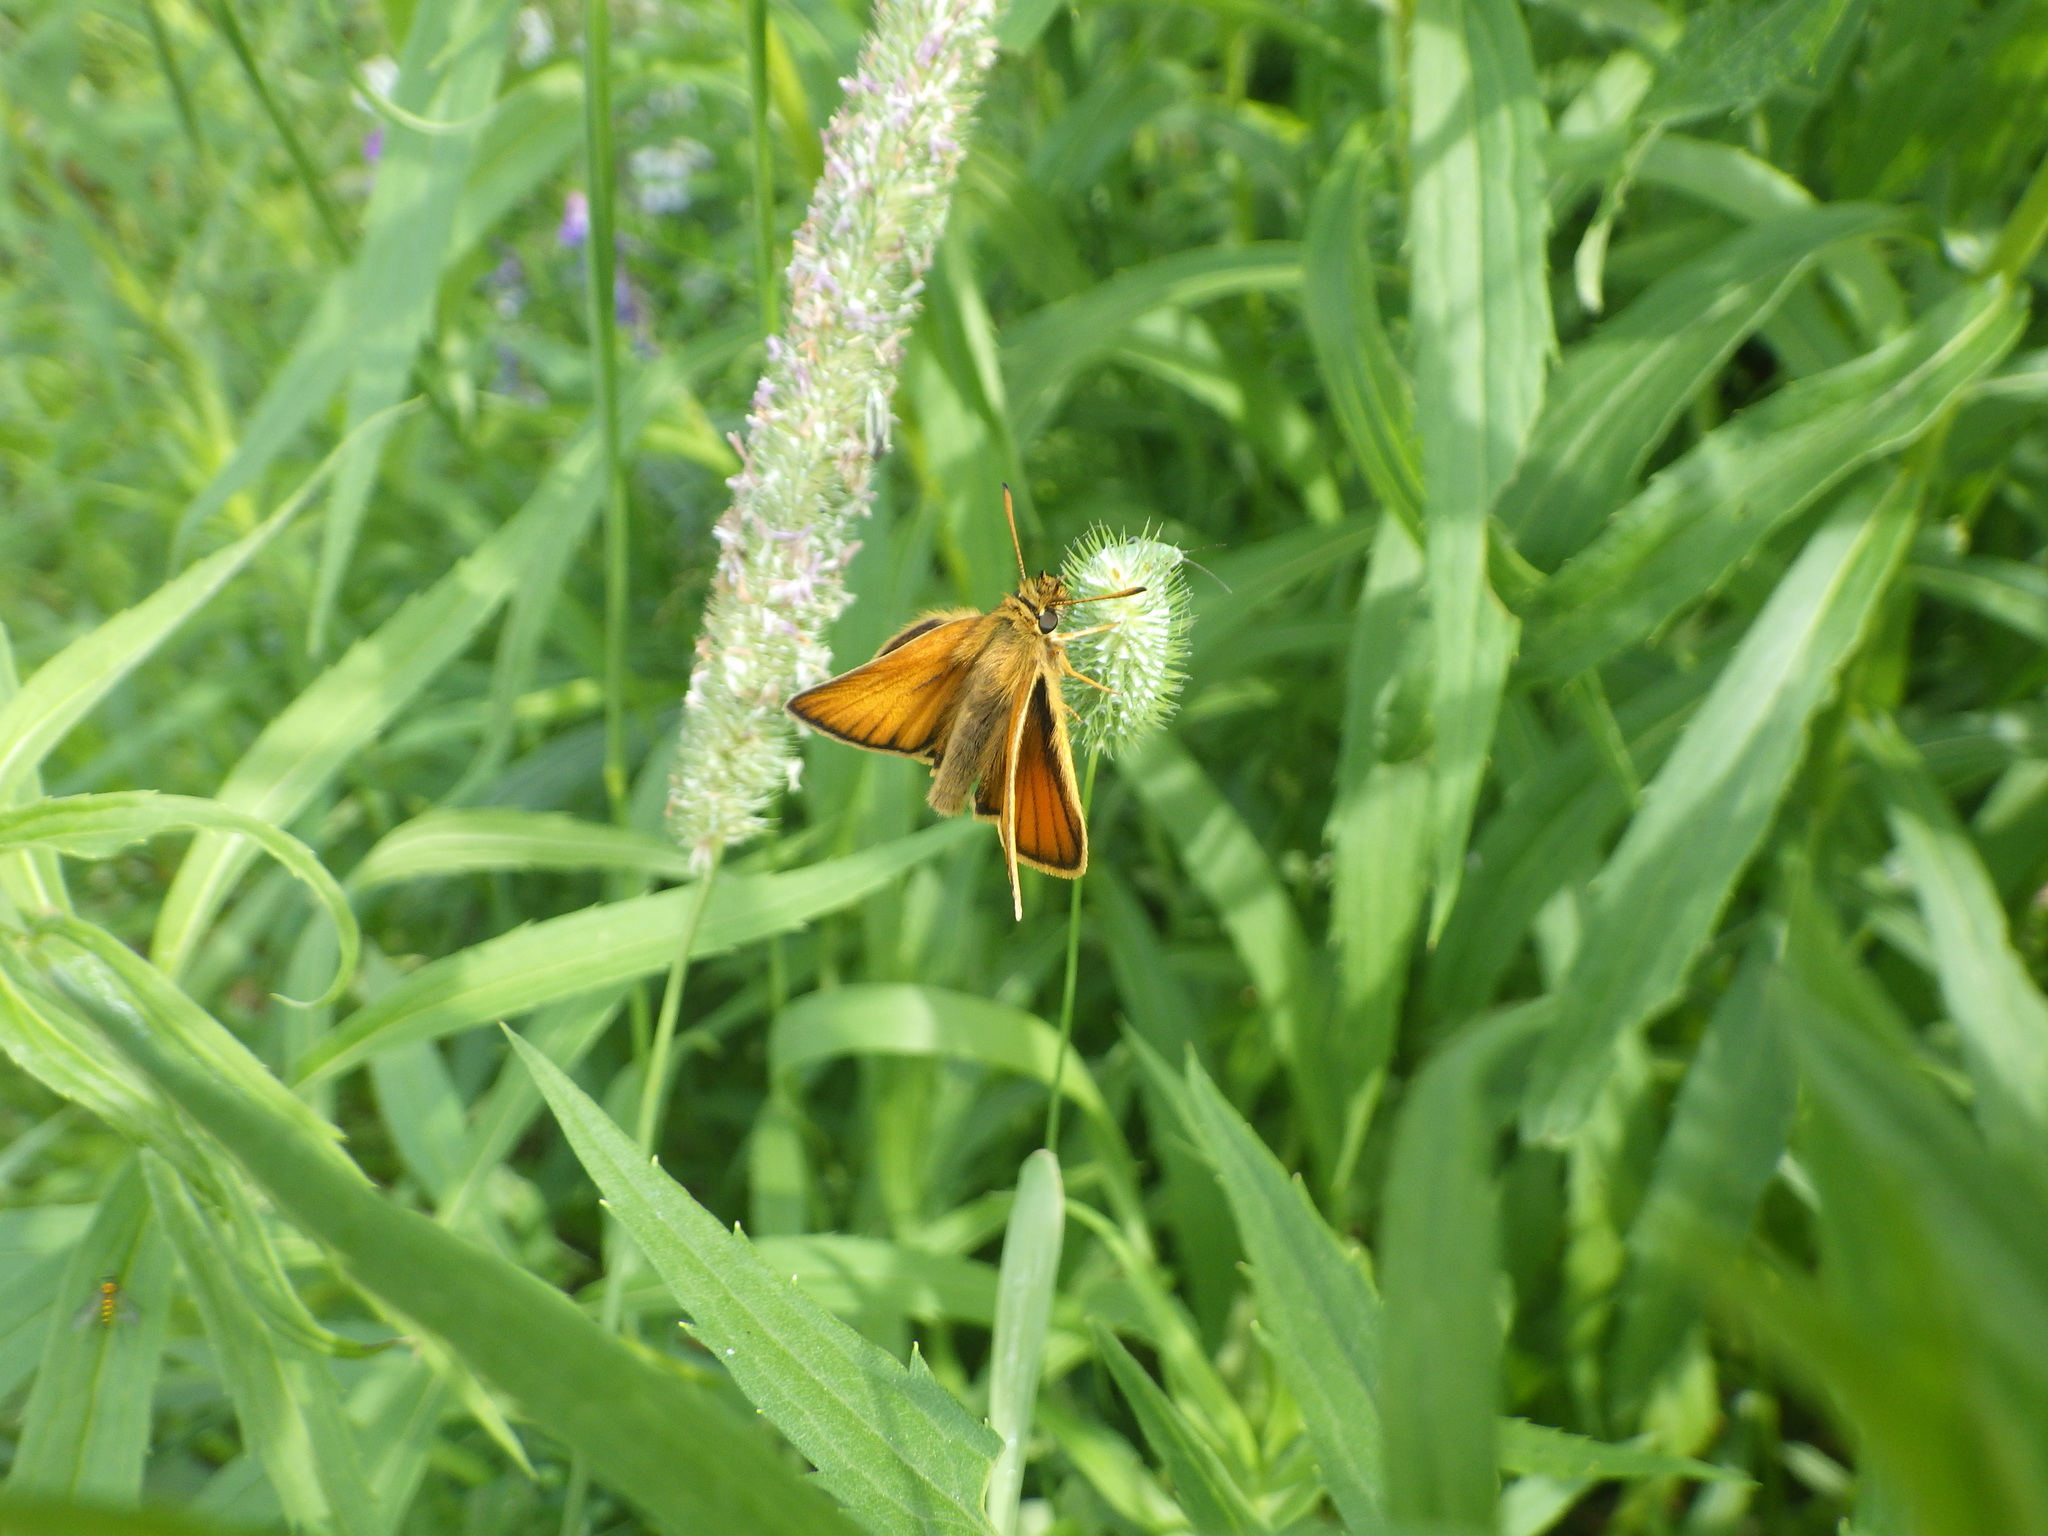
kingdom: Animalia
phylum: Arthropoda
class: Insecta
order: Lepidoptera
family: Hesperiidae
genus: Thymelicus
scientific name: Thymelicus lineola
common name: Essex skipper
